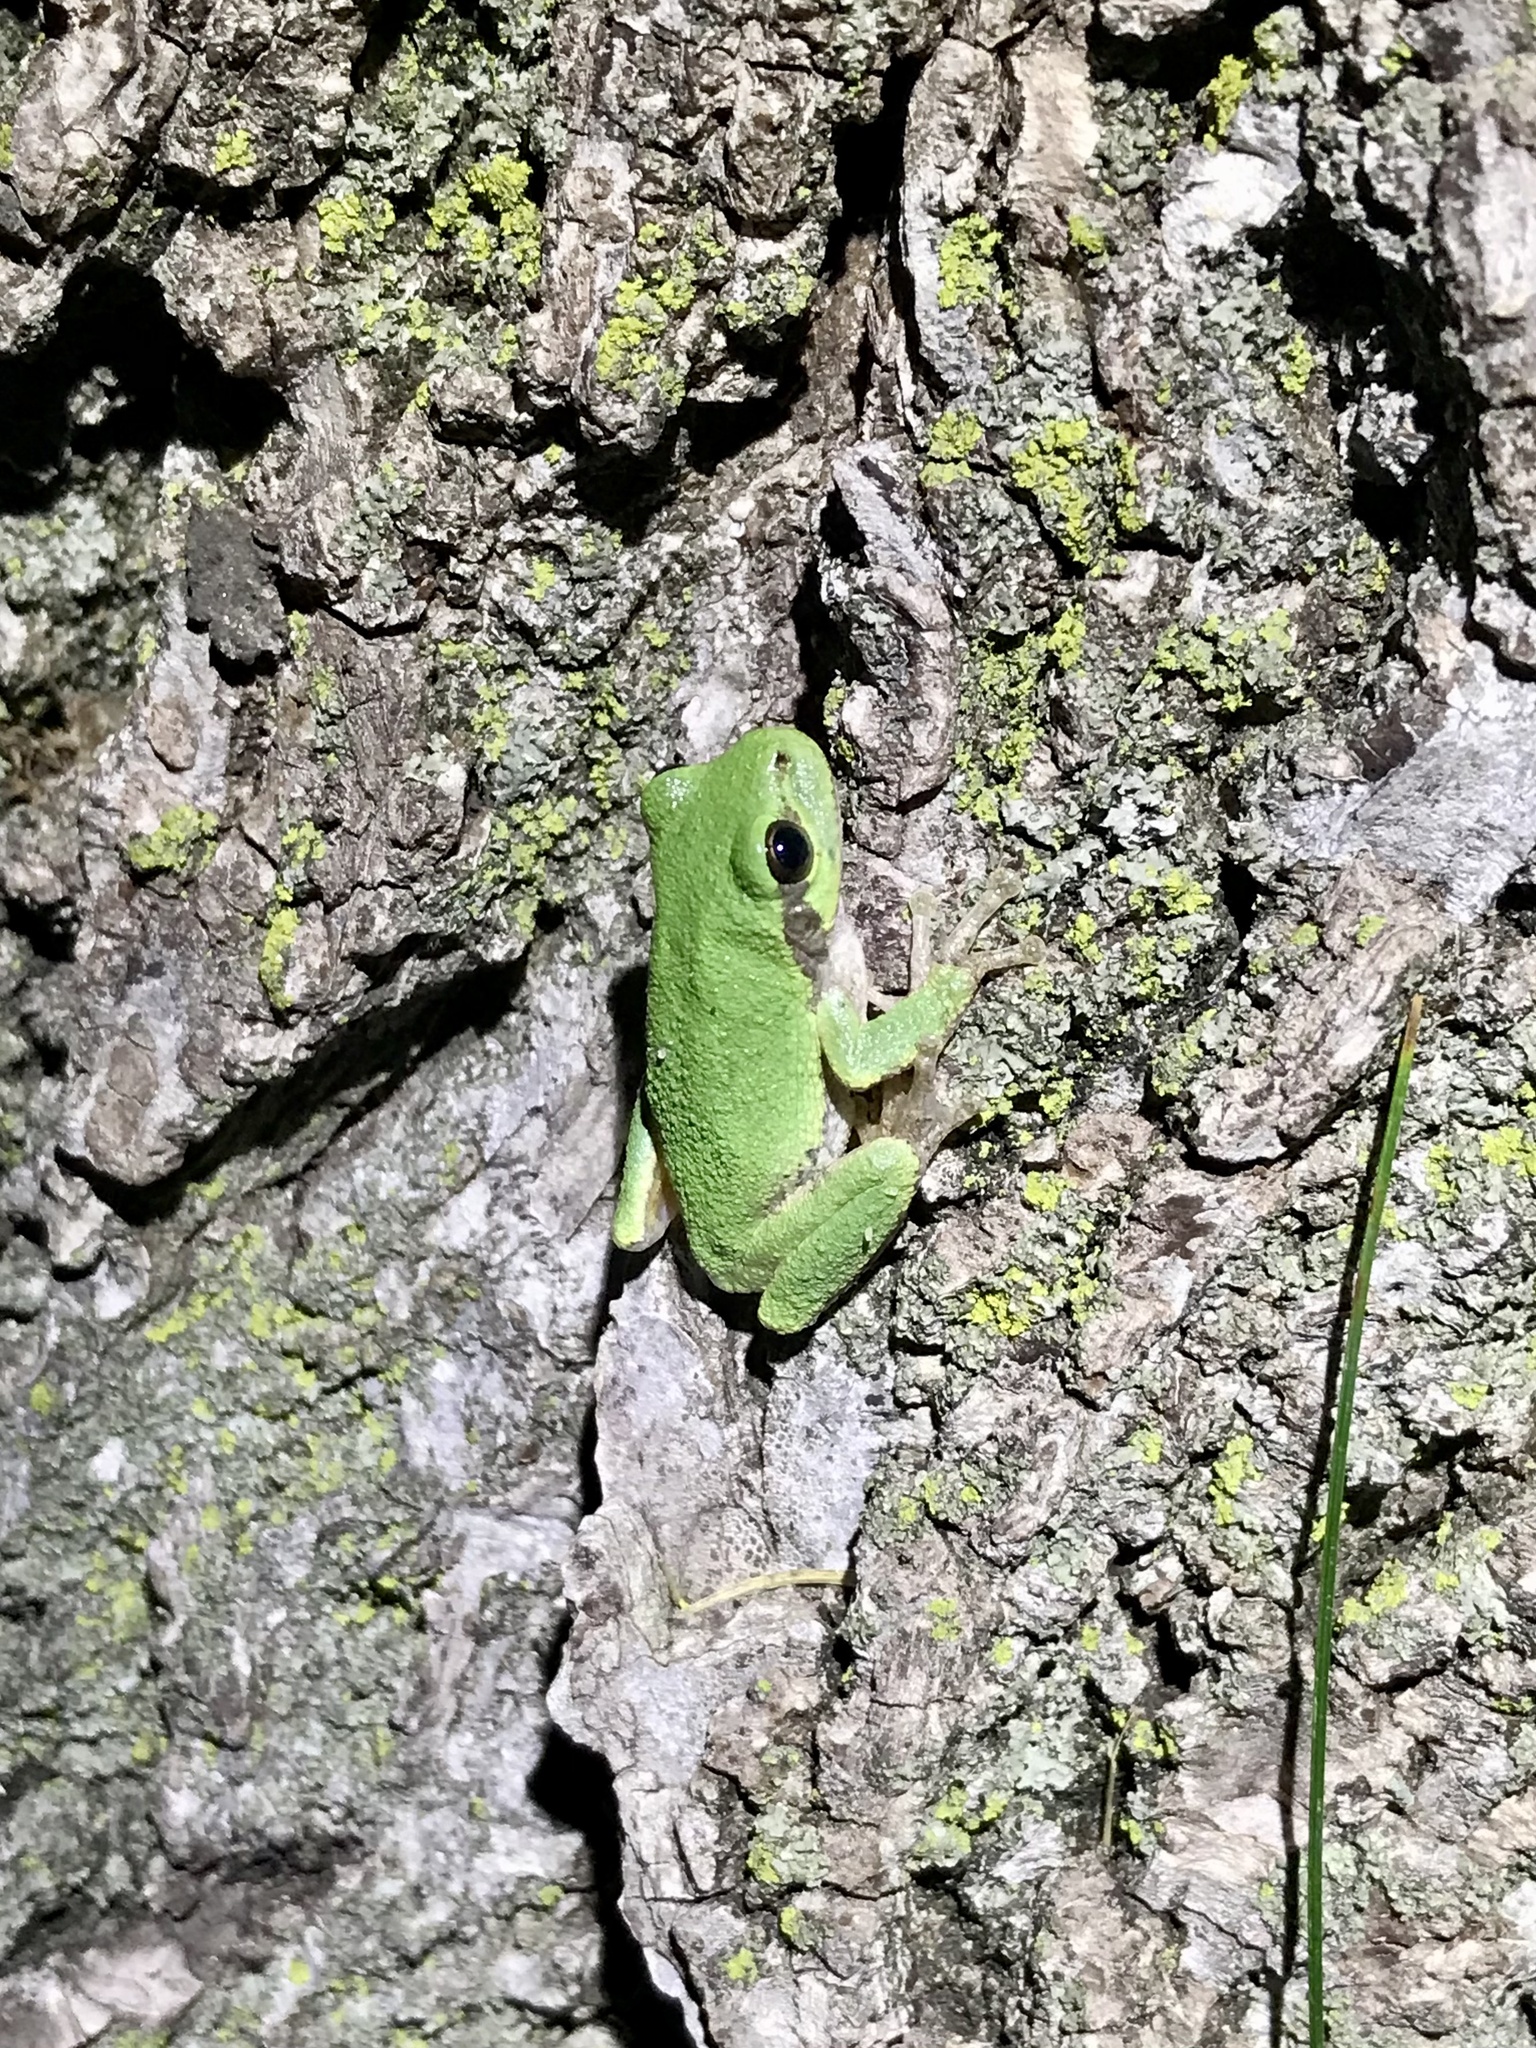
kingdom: Animalia
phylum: Chordata
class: Amphibia
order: Anura
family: Hylidae
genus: Hyla
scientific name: Hyla
